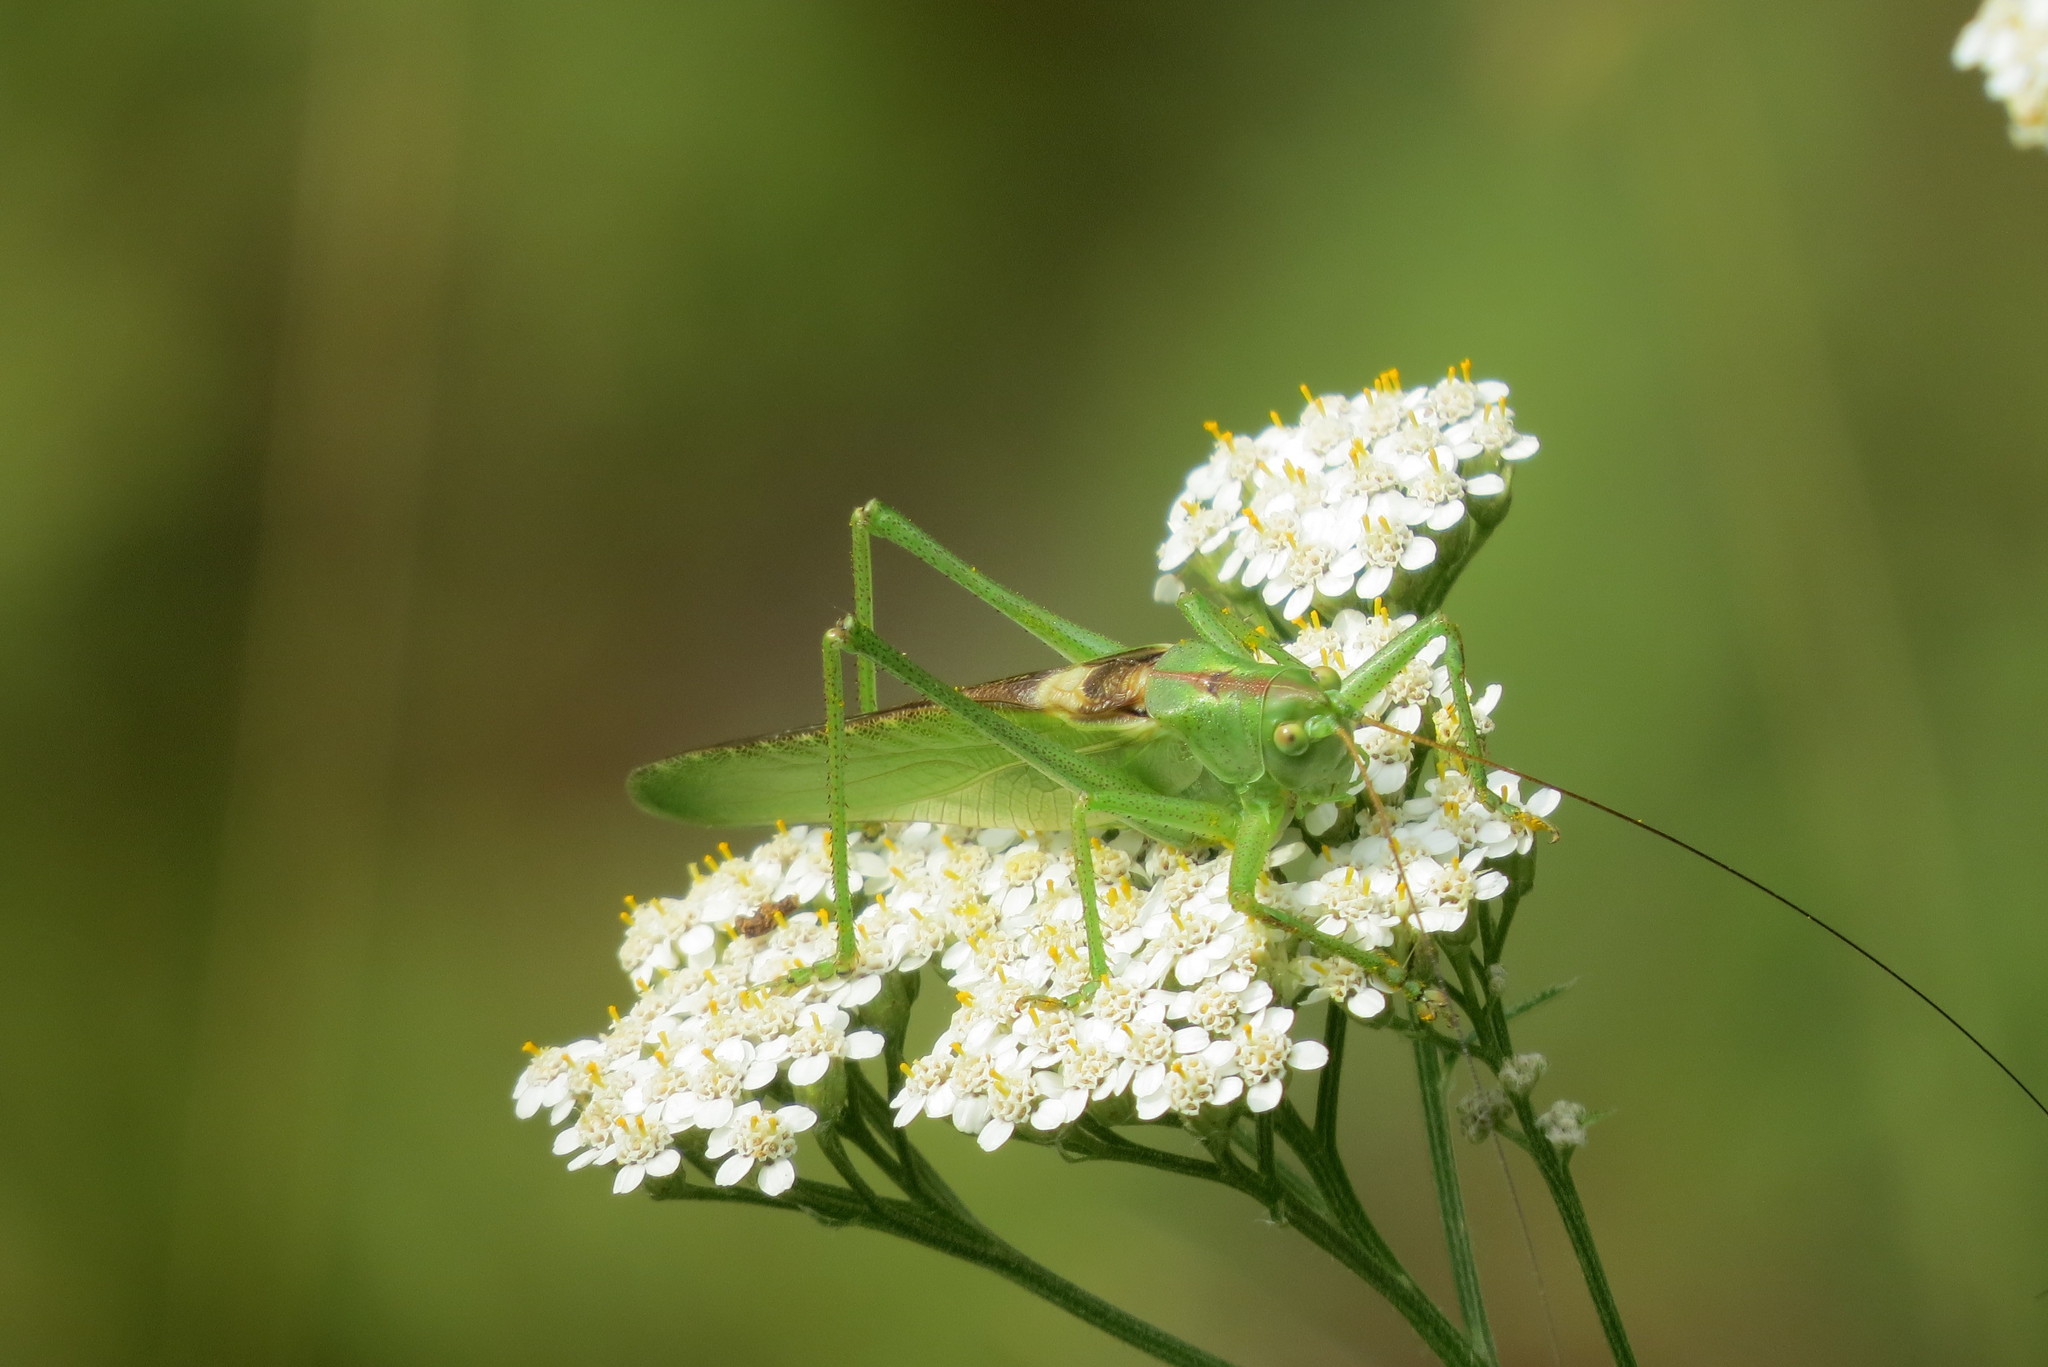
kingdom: Animalia
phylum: Arthropoda
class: Insecta
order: Orthoptera
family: Tettigoniidae
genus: Tettigonia
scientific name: Tettigonia viridissima
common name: Great green bush-cricket
